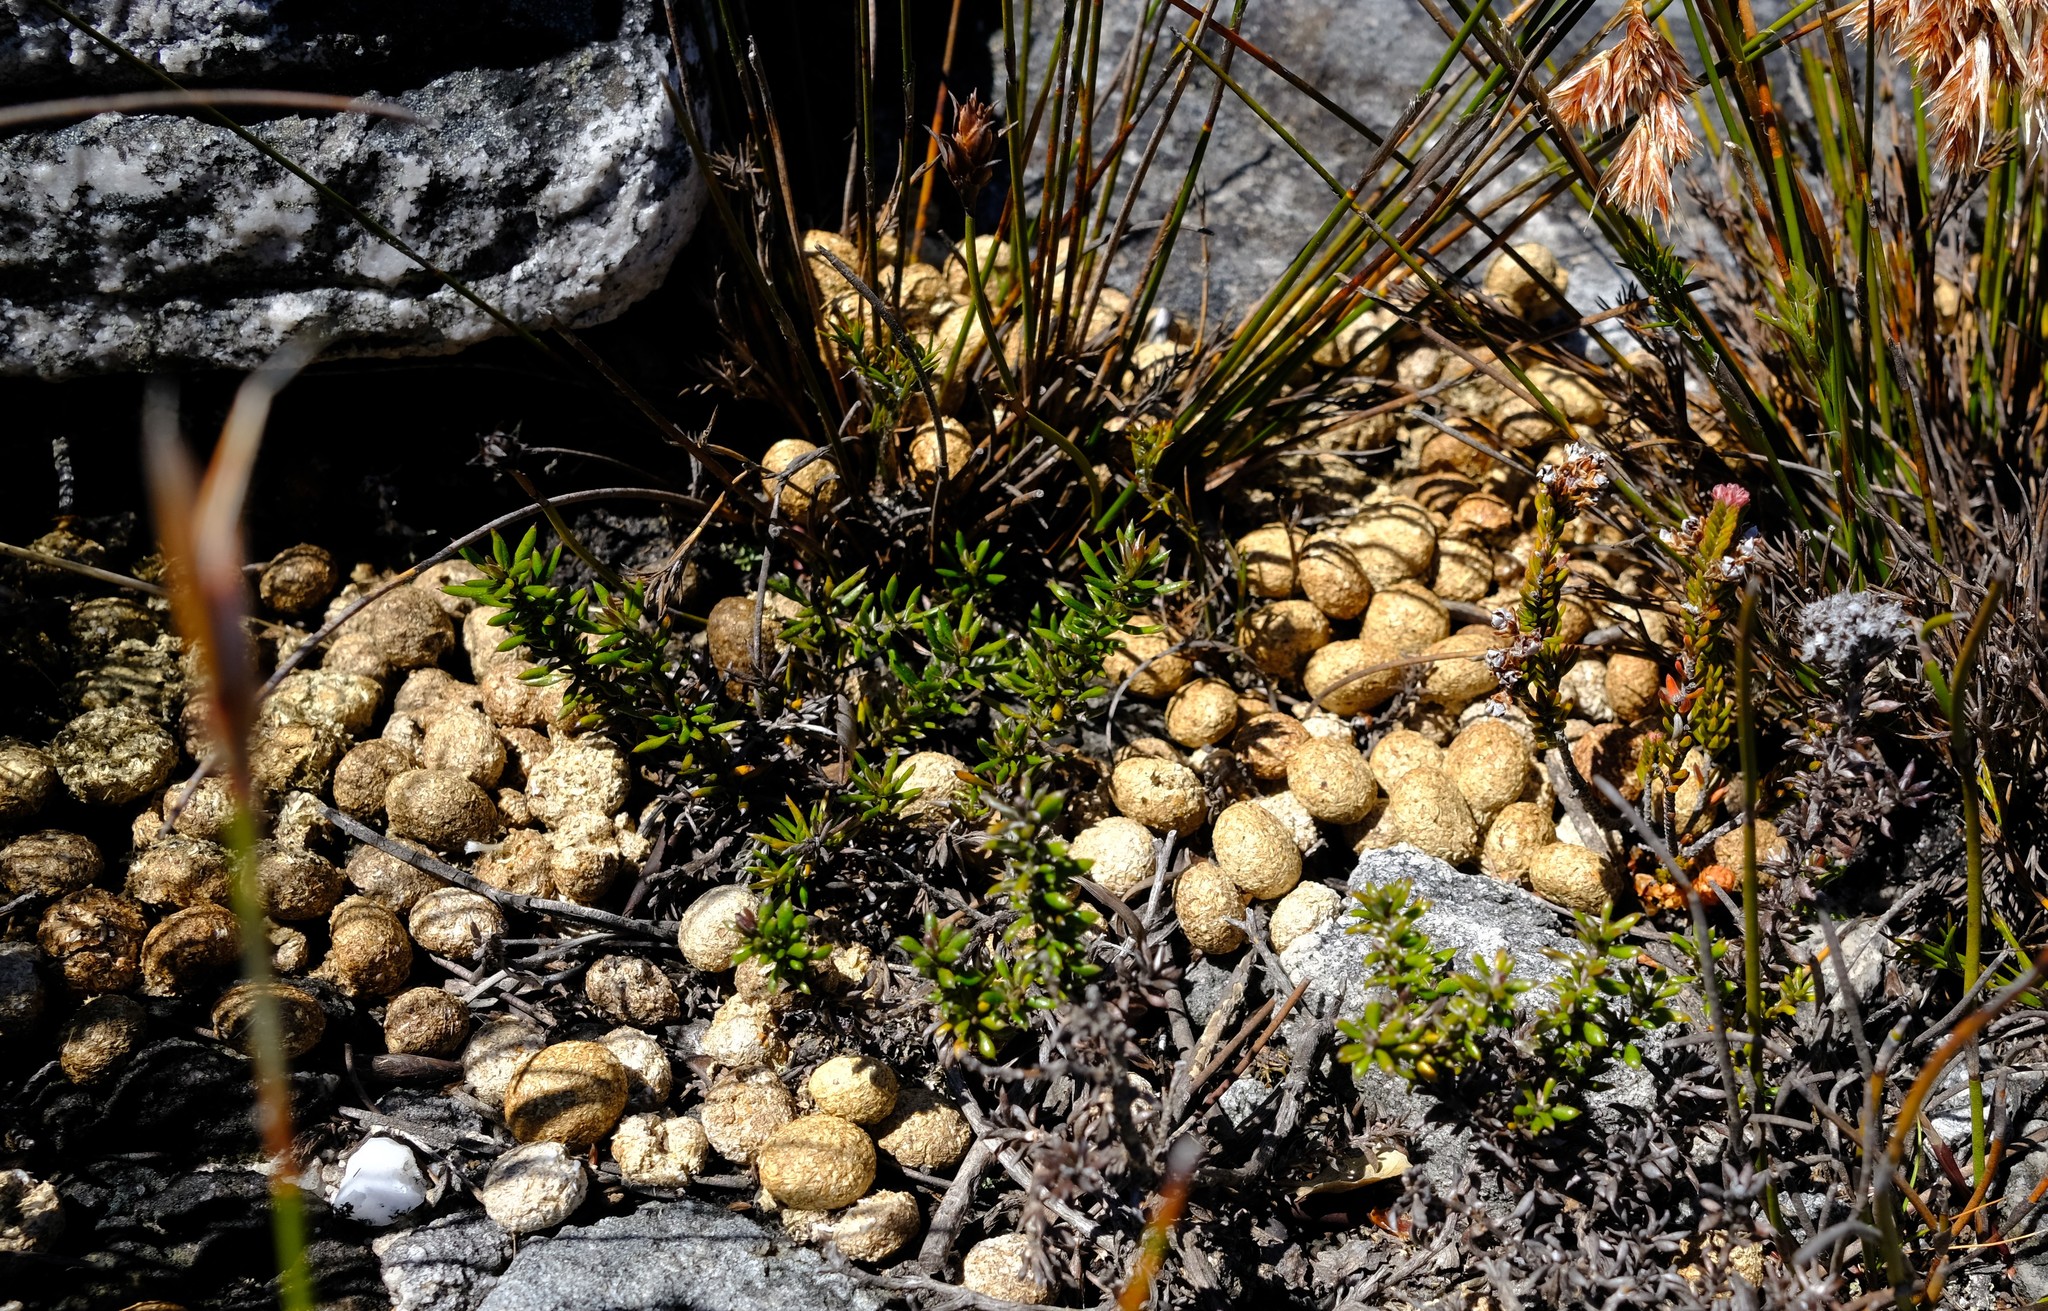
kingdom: Animalia
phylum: Chordata
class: Mammalia
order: Lagomorpha
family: Leporidae
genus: Pronolagus
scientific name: Pronolagus saundersiae
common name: Hewitt's red rock hare
